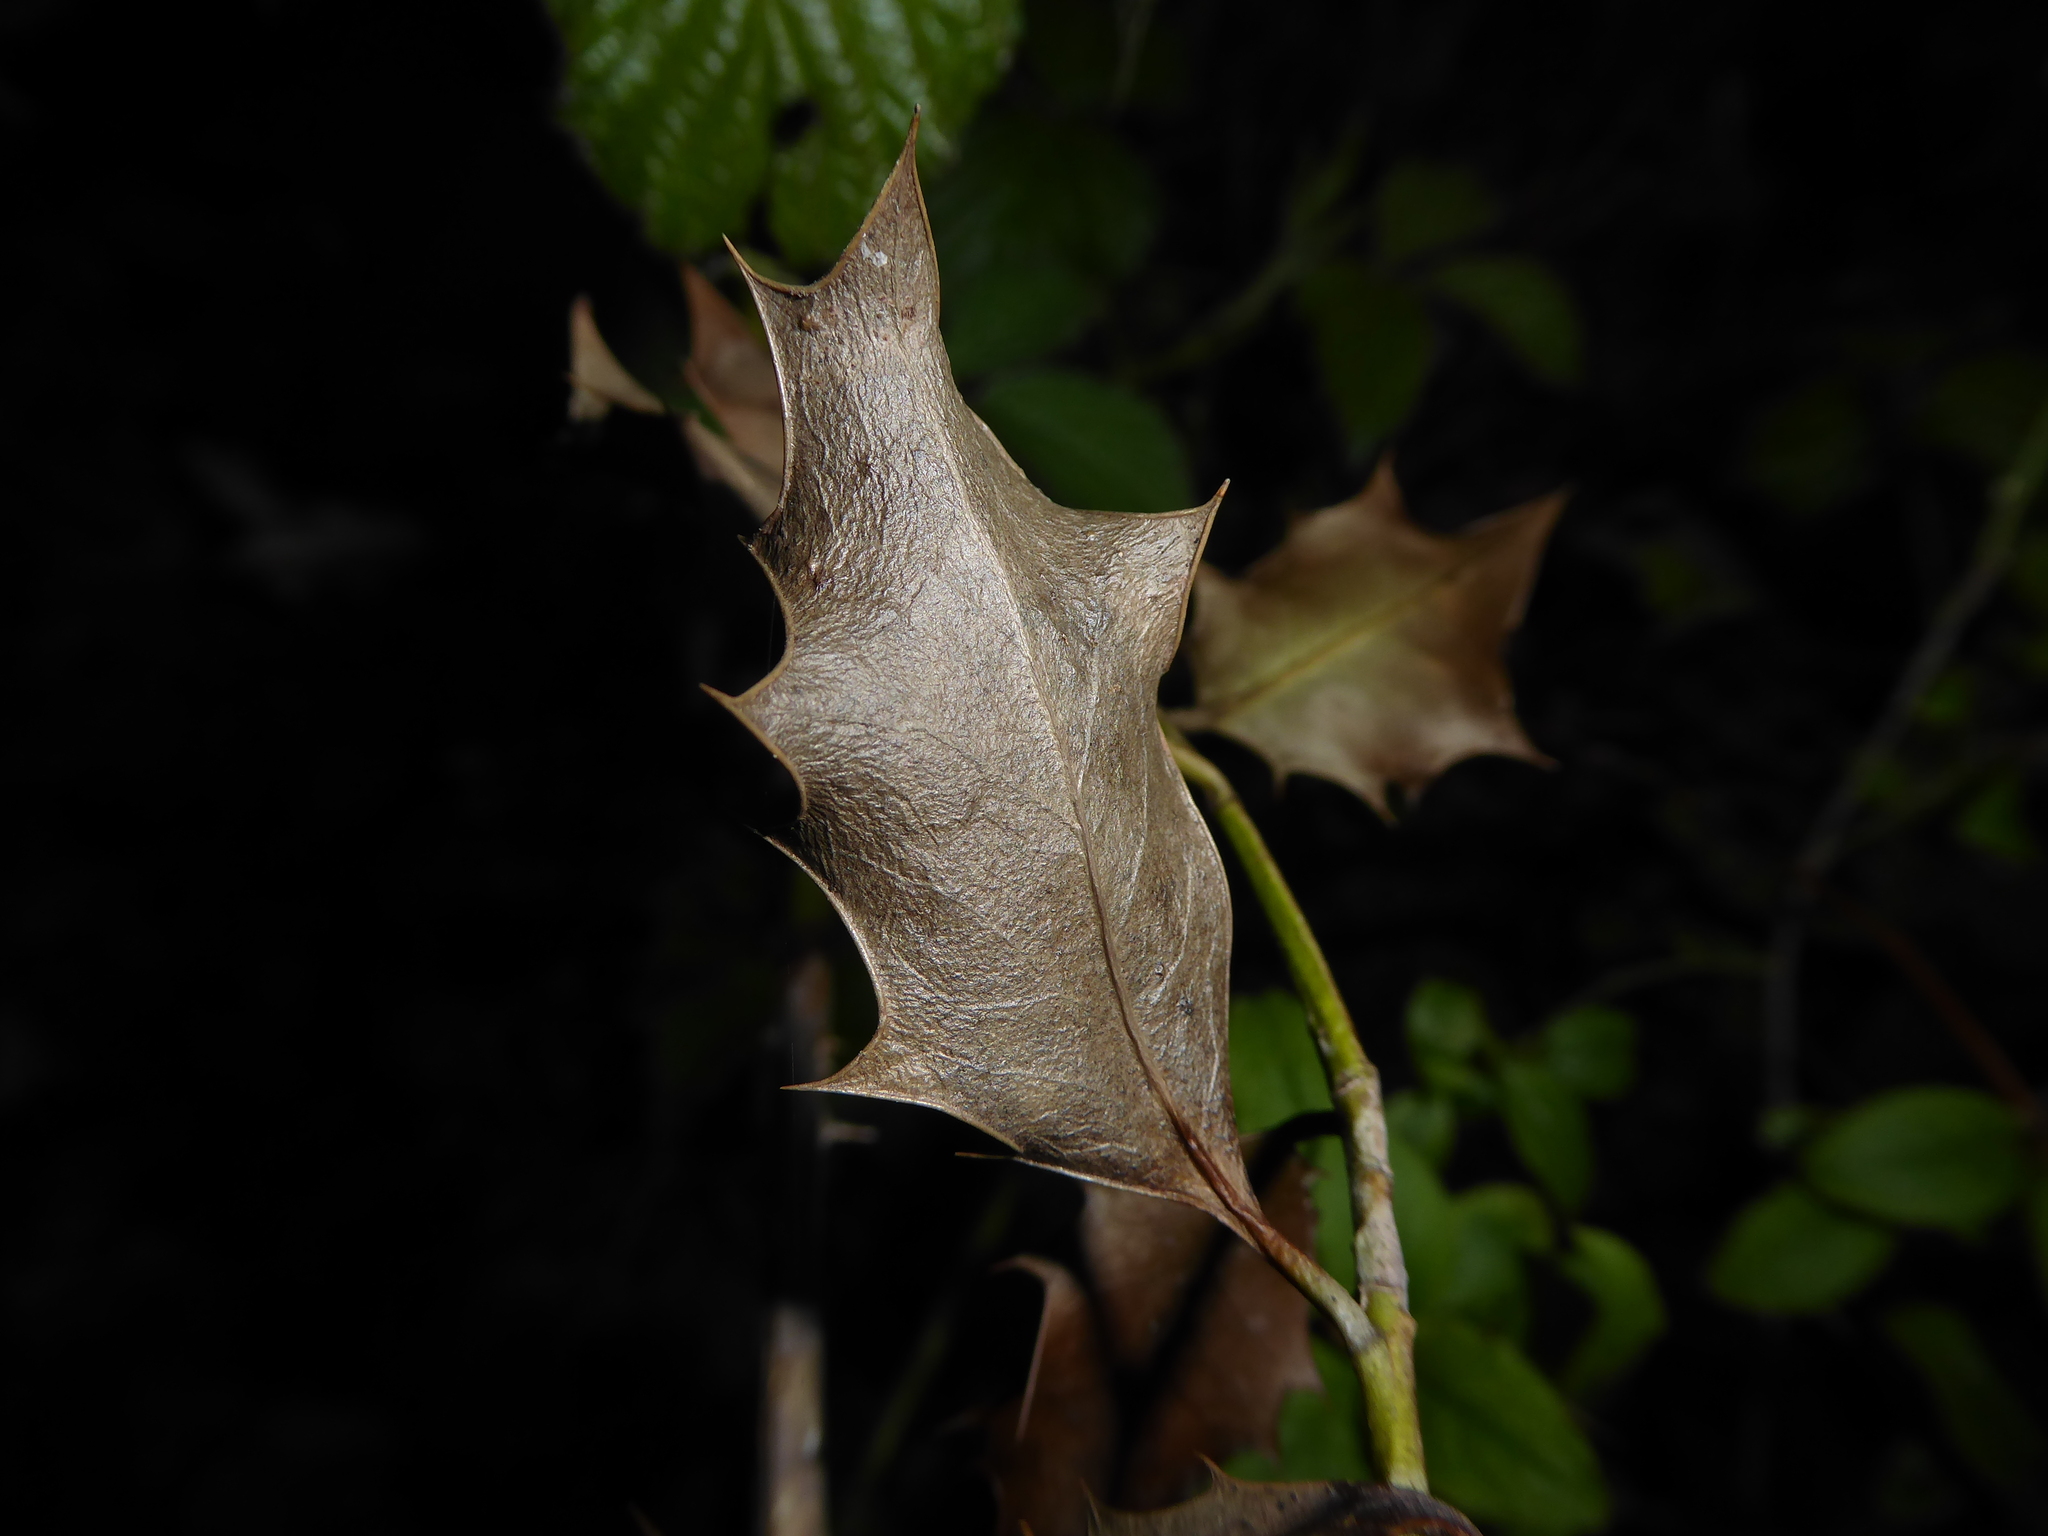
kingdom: Fungi
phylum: Ascomycota
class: Leotiomycetes
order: Helotiales
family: Cenangiaceae
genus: Trochila
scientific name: Trochila ilicina
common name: Holly speckle
